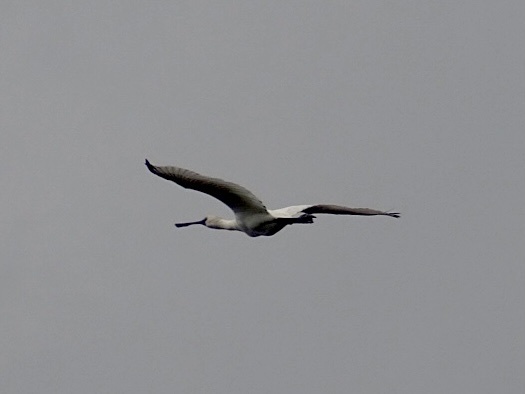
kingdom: Animalia
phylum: Chordata
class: Aves
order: Pelecaniformes
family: Threskiornithidae
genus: Platalea
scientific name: Platalea minor
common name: Black-faced spoonbill
